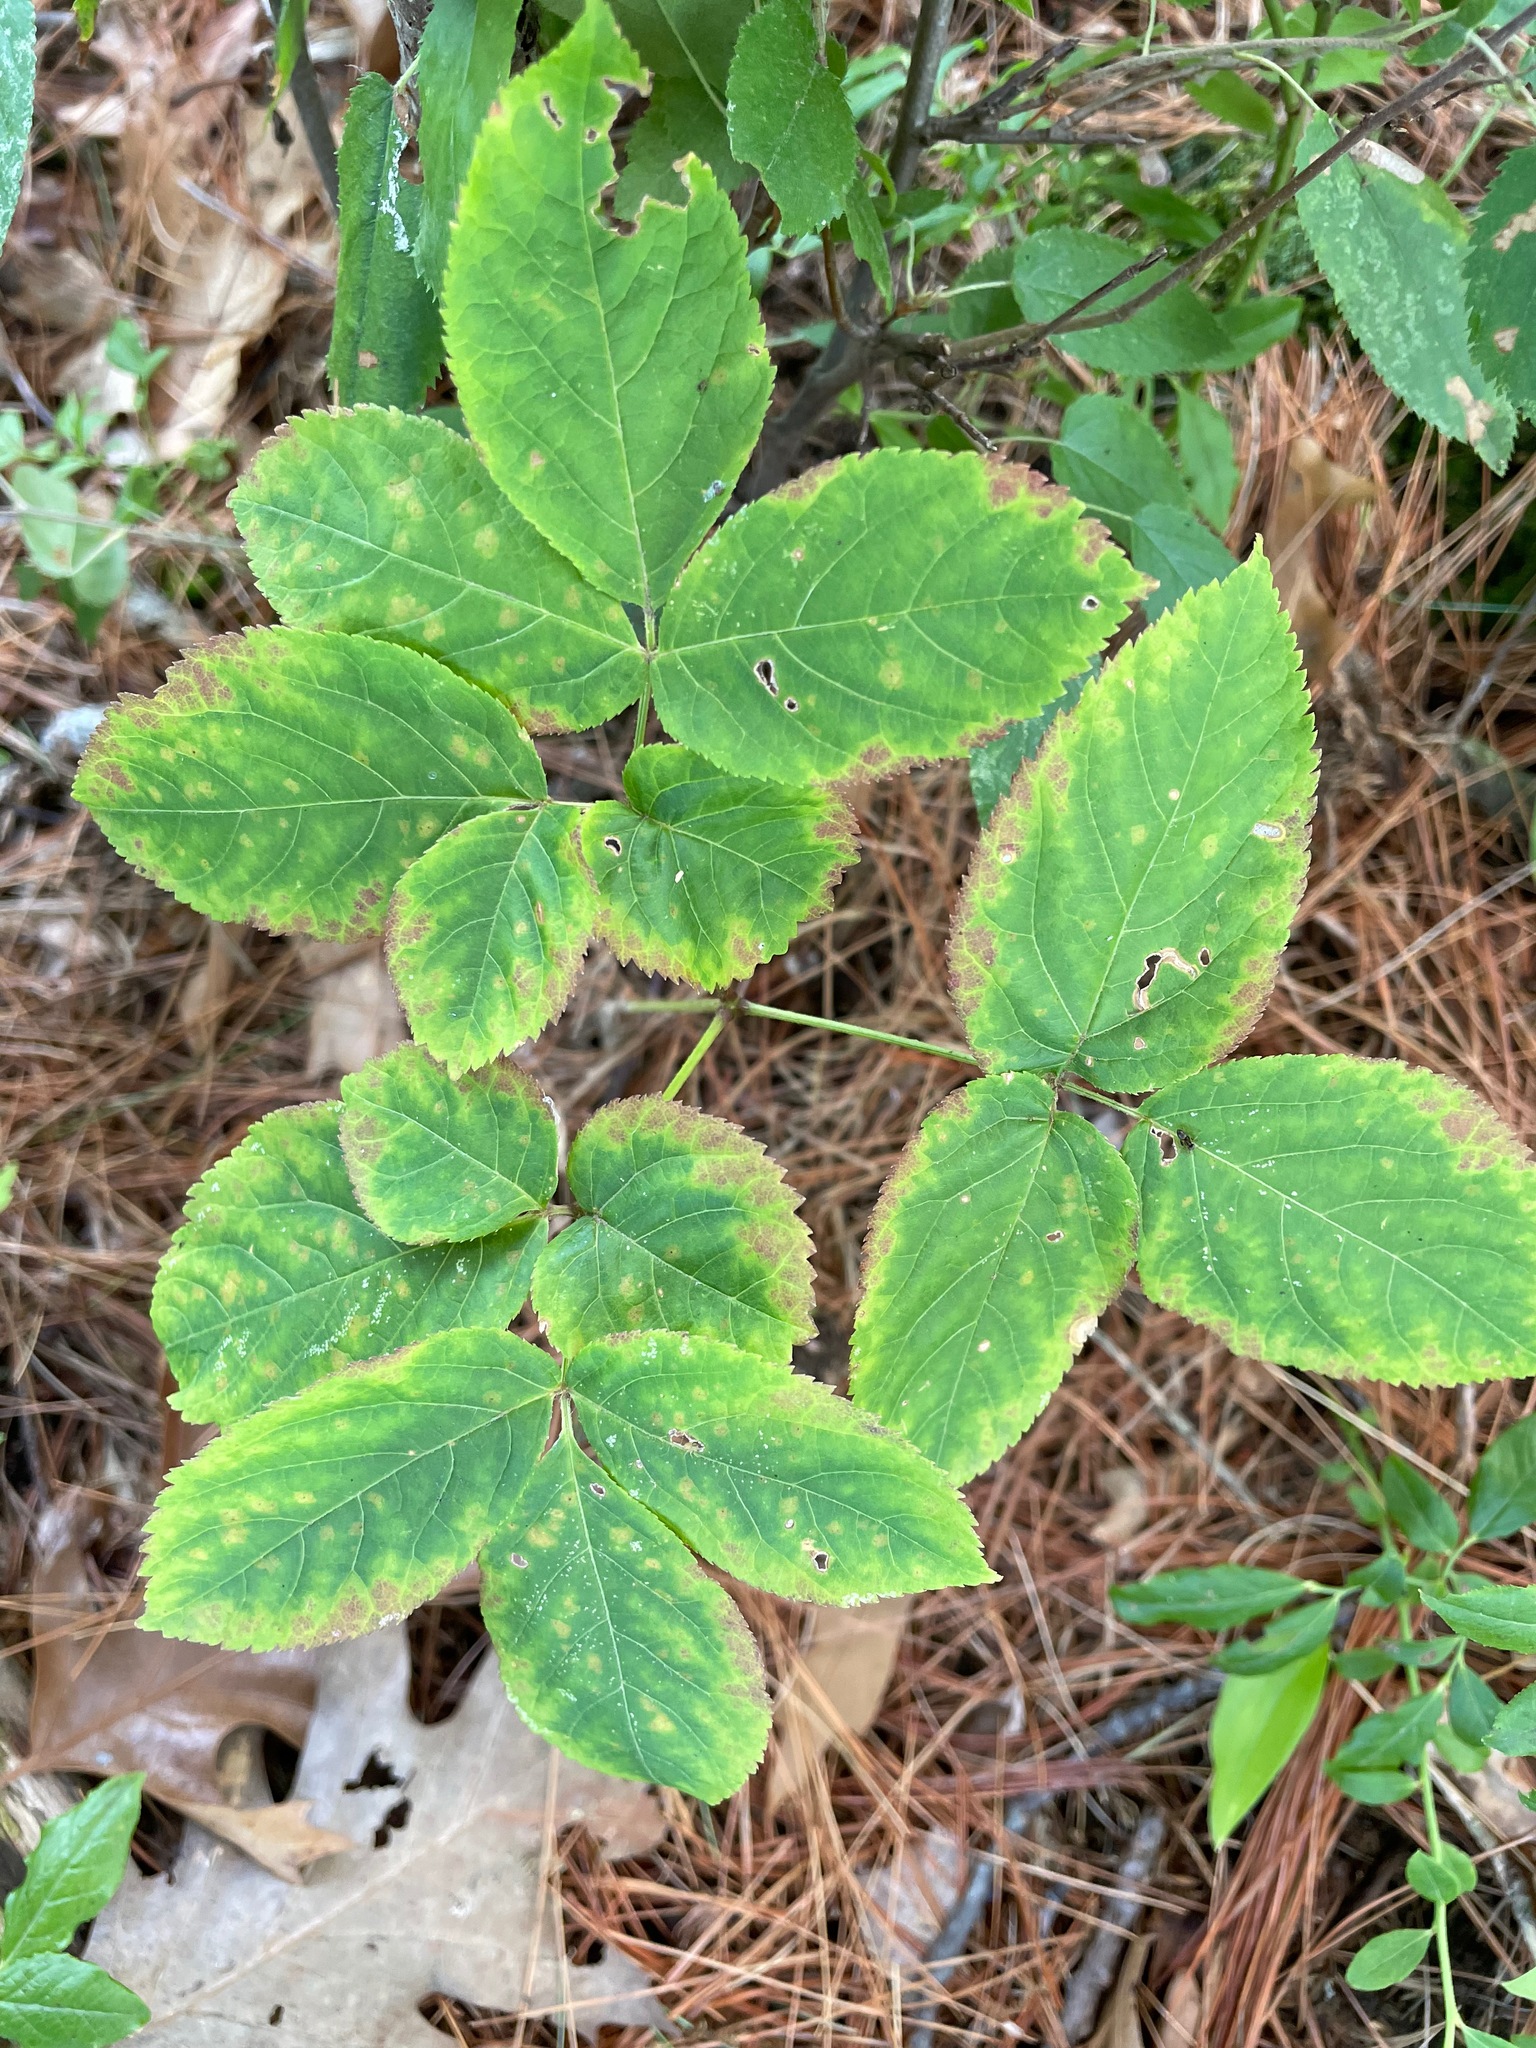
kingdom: Plantae
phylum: Tracheophyta
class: Magnoliopsida
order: Apiales
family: Araliaceae
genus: Aralia
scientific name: Aralia nudicaulis
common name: Wild sarsaparilla
